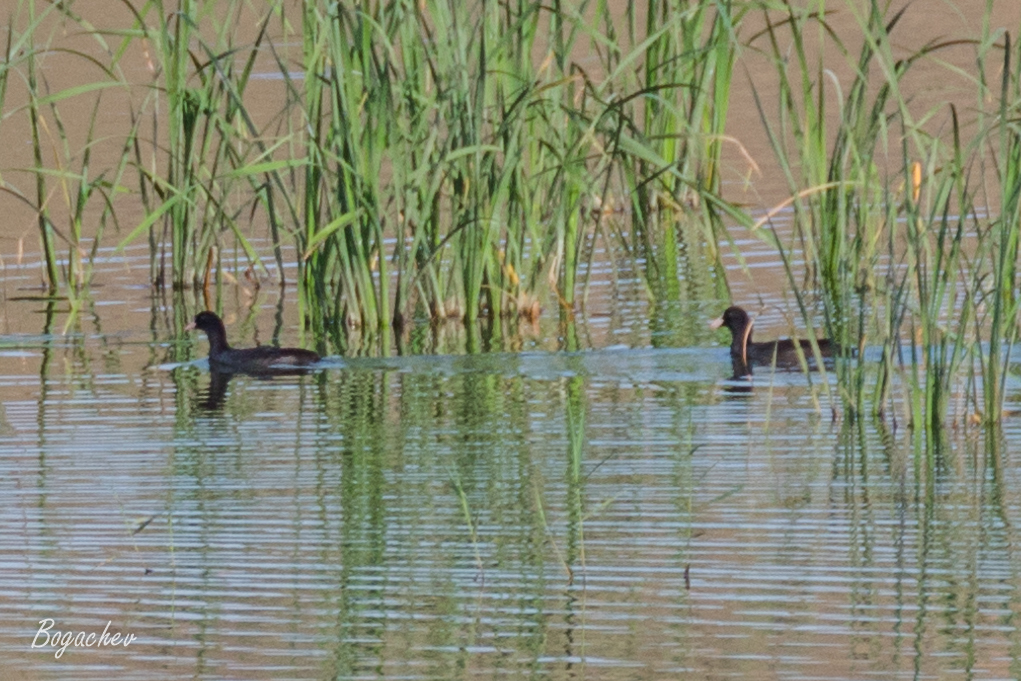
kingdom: Animalia
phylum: Chordata
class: Aves
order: Gruiformes
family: Rallidae
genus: Fulica
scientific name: Fulica atra
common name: Eurasian coot
